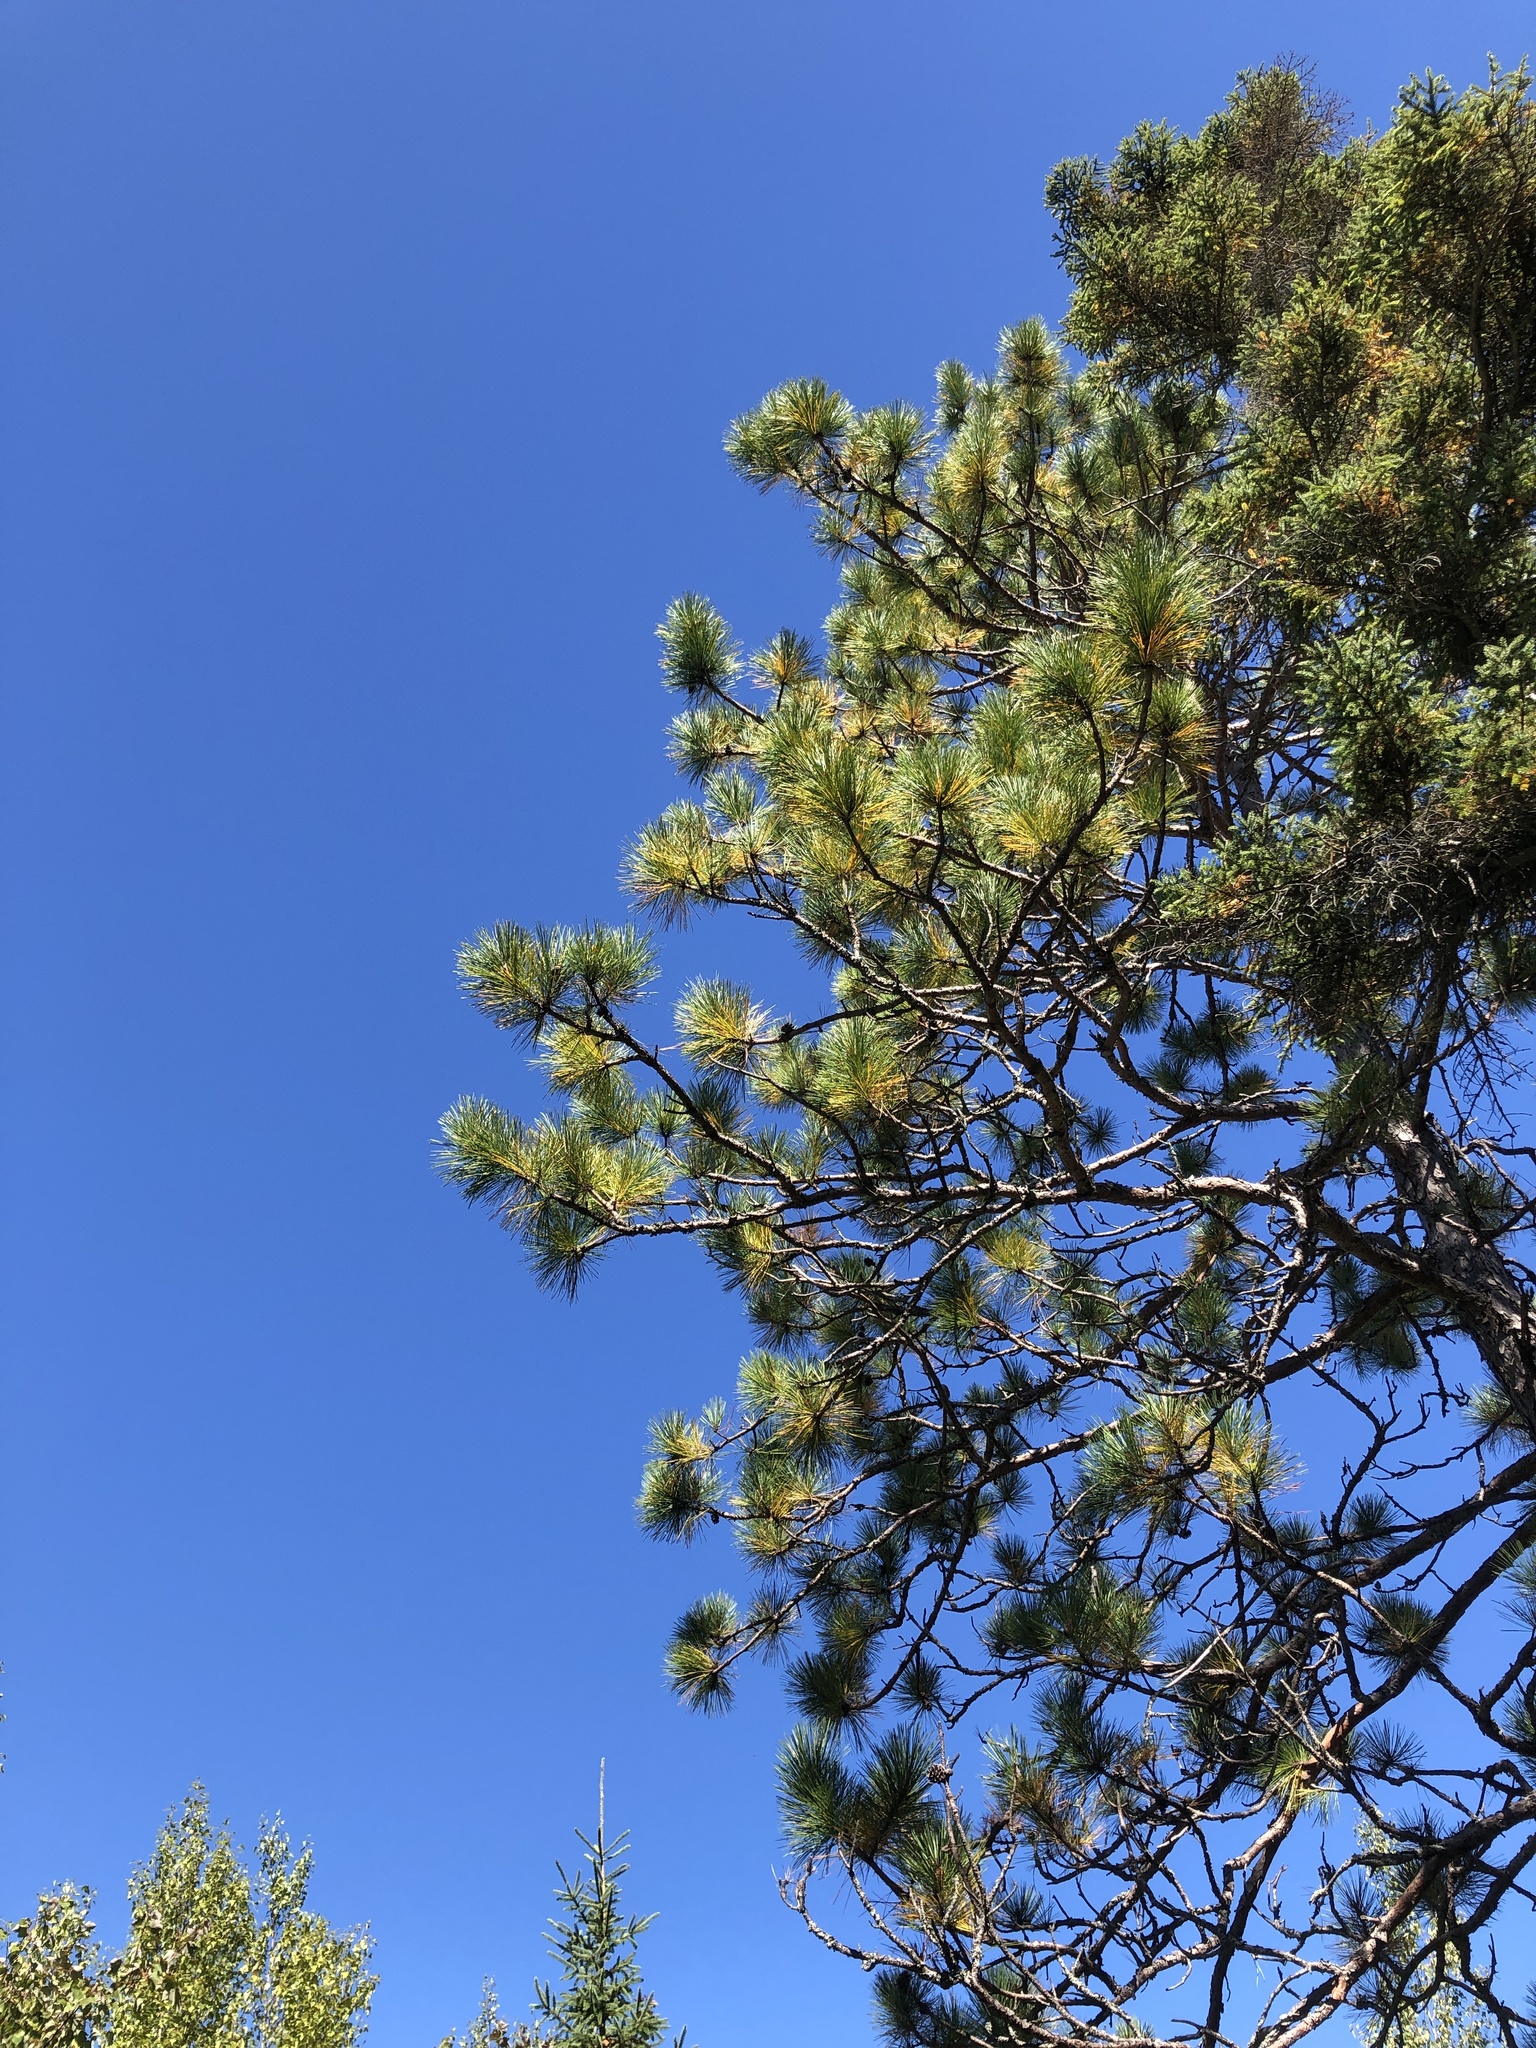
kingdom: Plantae
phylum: Tracheophyta
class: Pinopsida
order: Pinales
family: Pinaceae
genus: Pinus
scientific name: Pinus resinosa
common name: Norway pine
